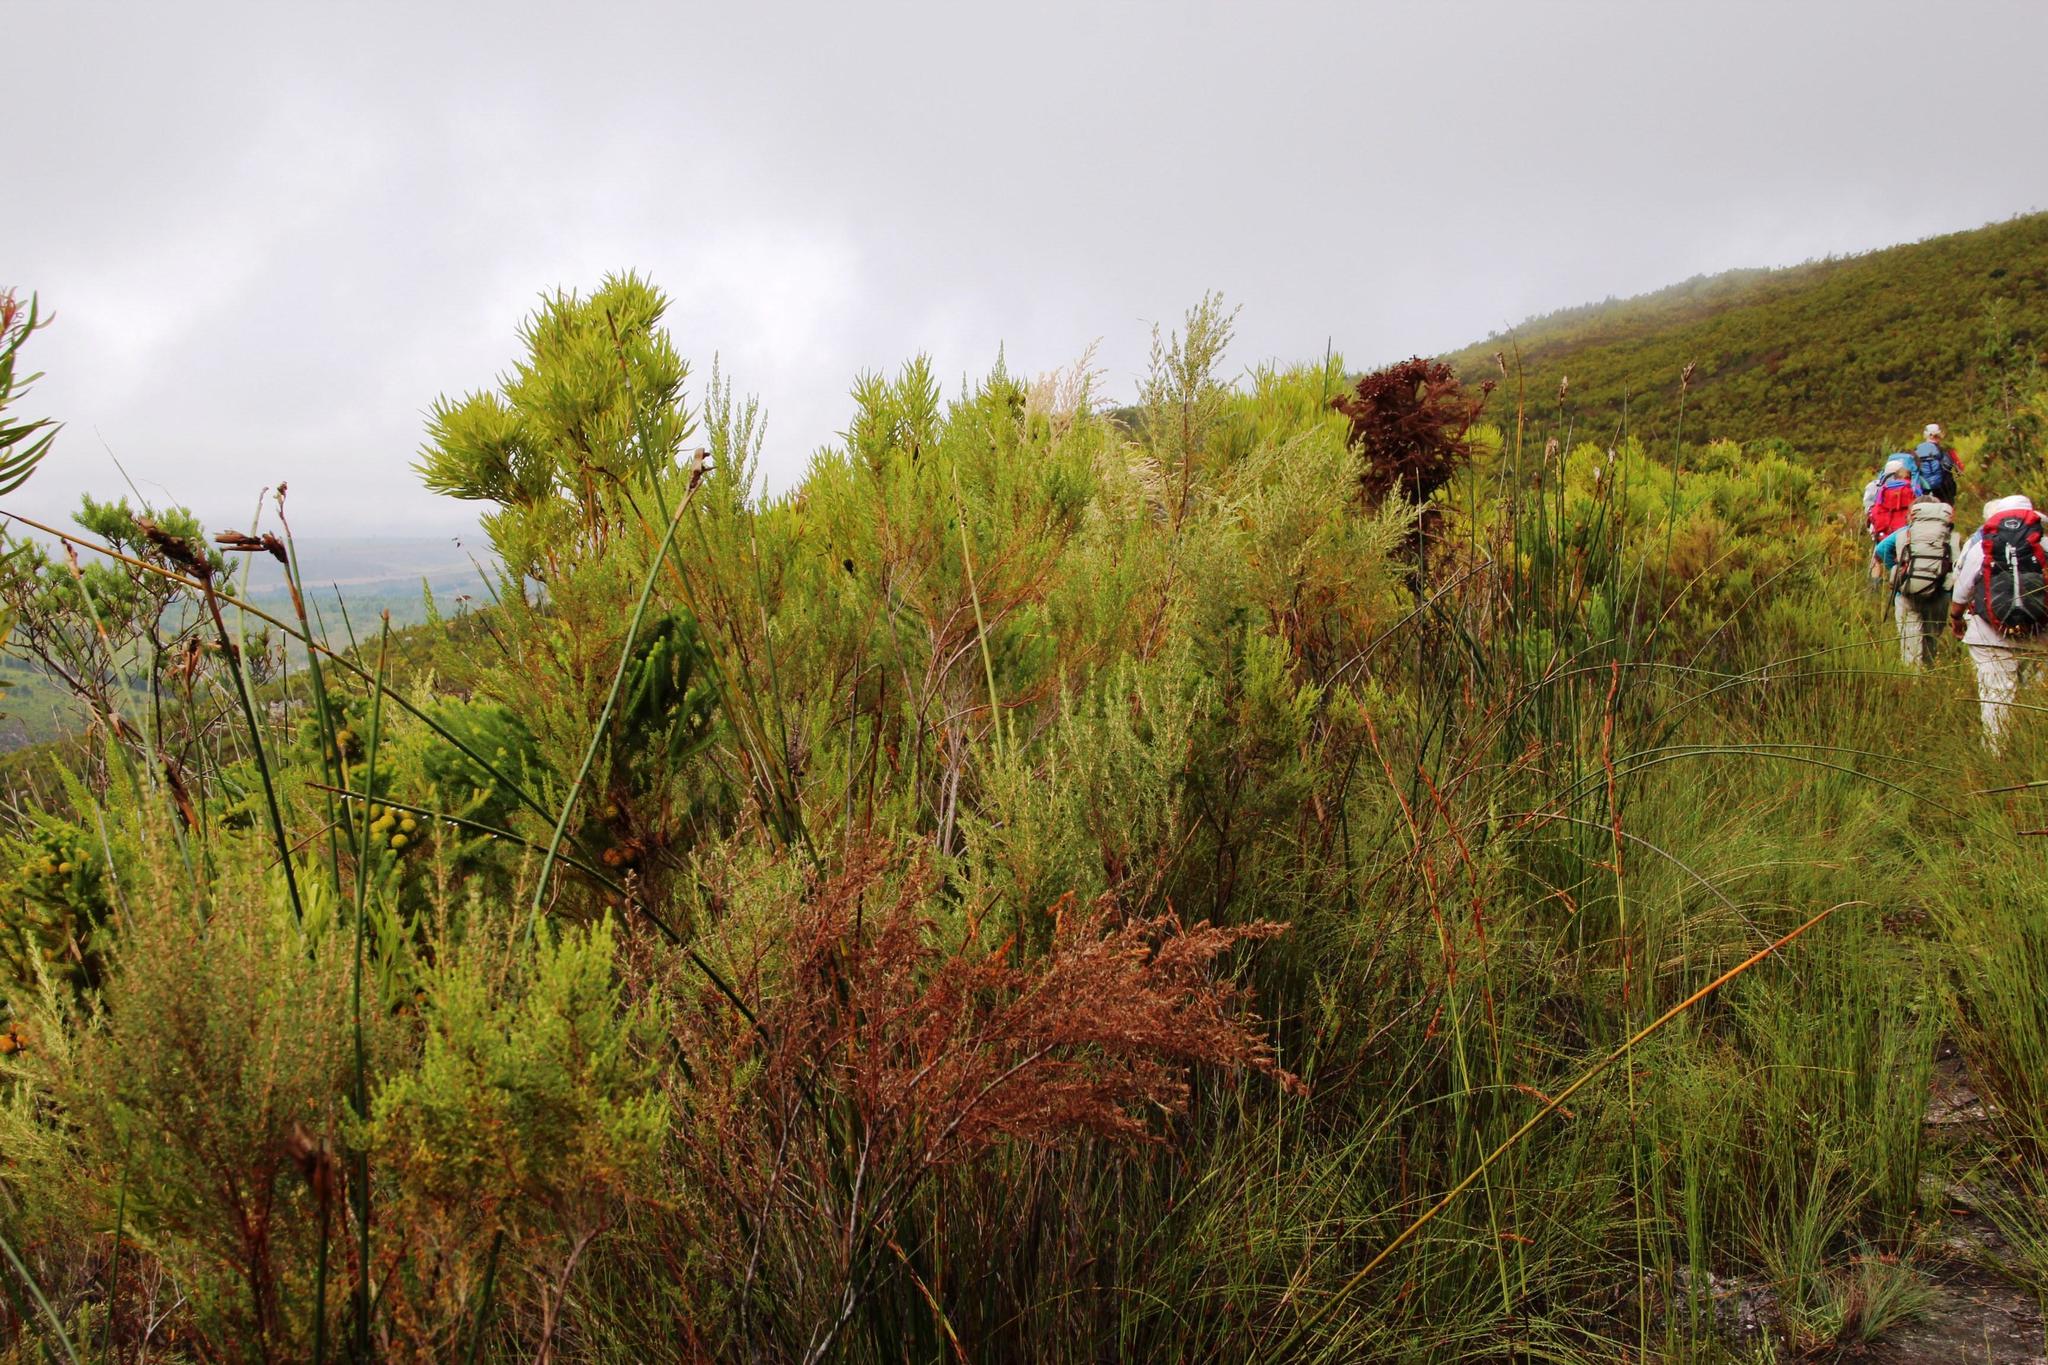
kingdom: Plantae
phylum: Tracheophyta
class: Magnoliopsida
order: Cornales
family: Grubbiaceae
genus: Grubbia
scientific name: Grubbia rosmarinifolia
